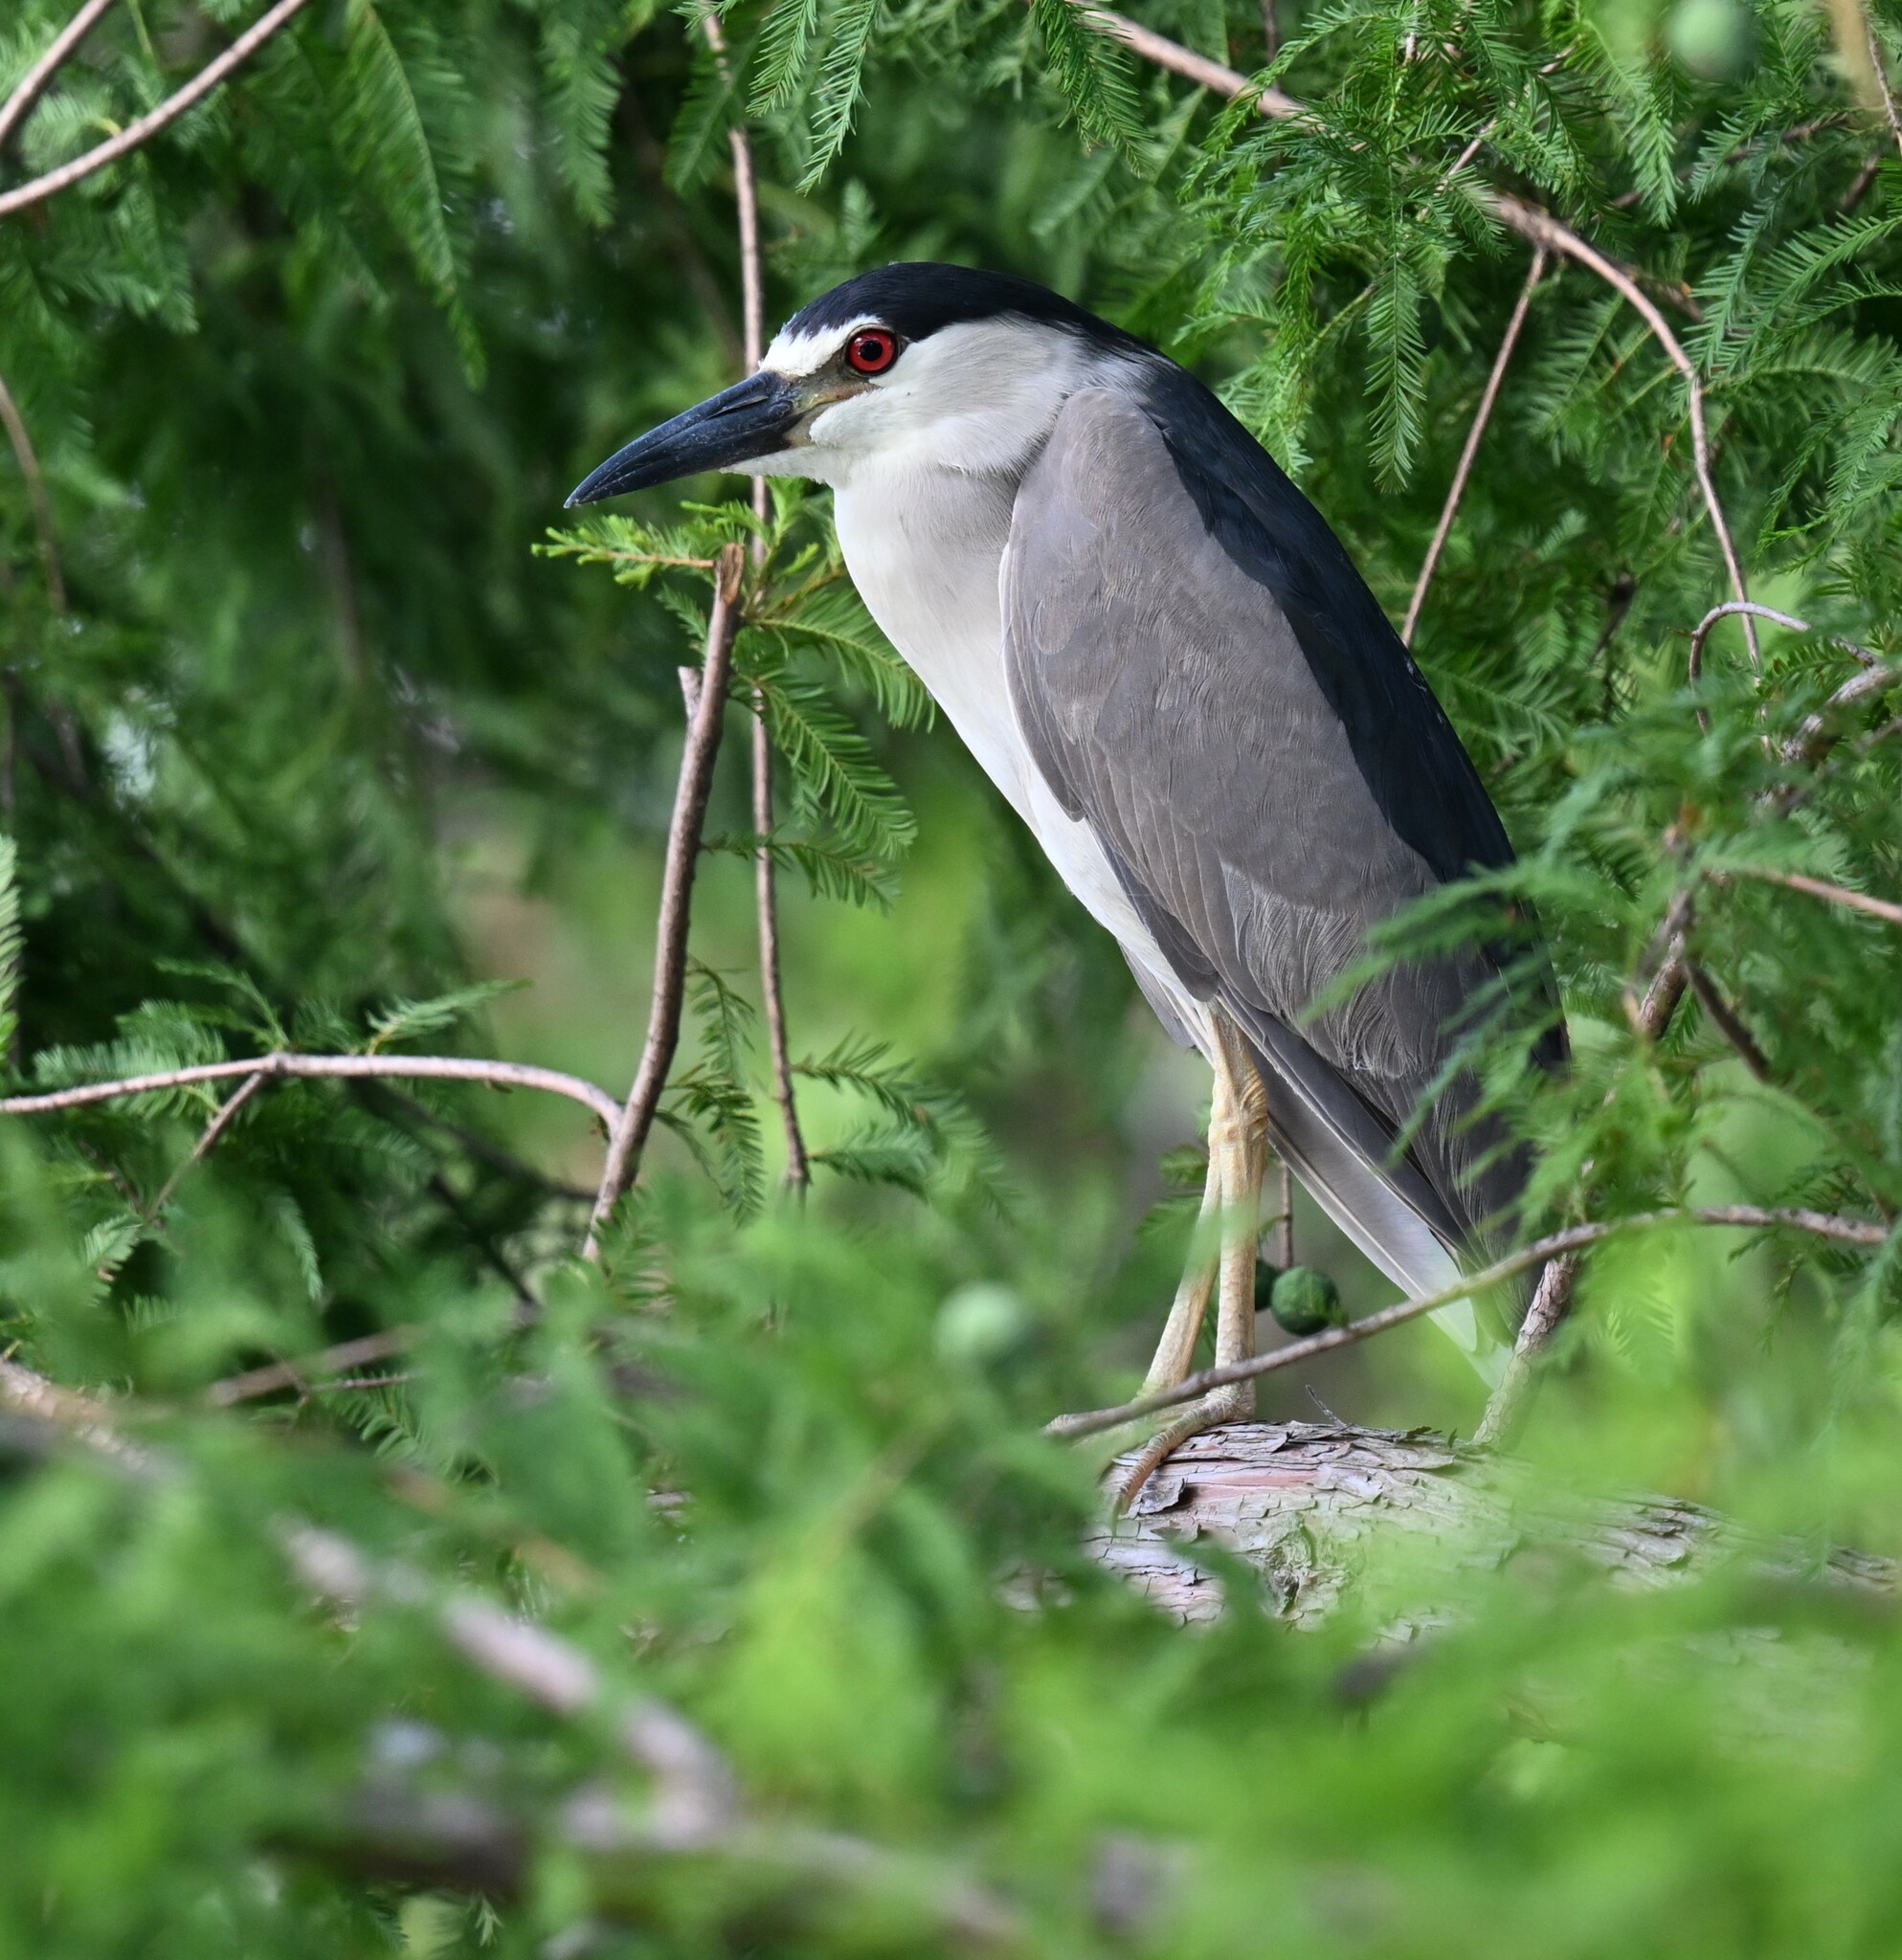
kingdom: Animalia
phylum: Chordata
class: Aves
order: Pelecaniformes
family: Ardeidae
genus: Nycticorax
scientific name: Nycticorax nycticorax
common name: Black-crowned night heron
